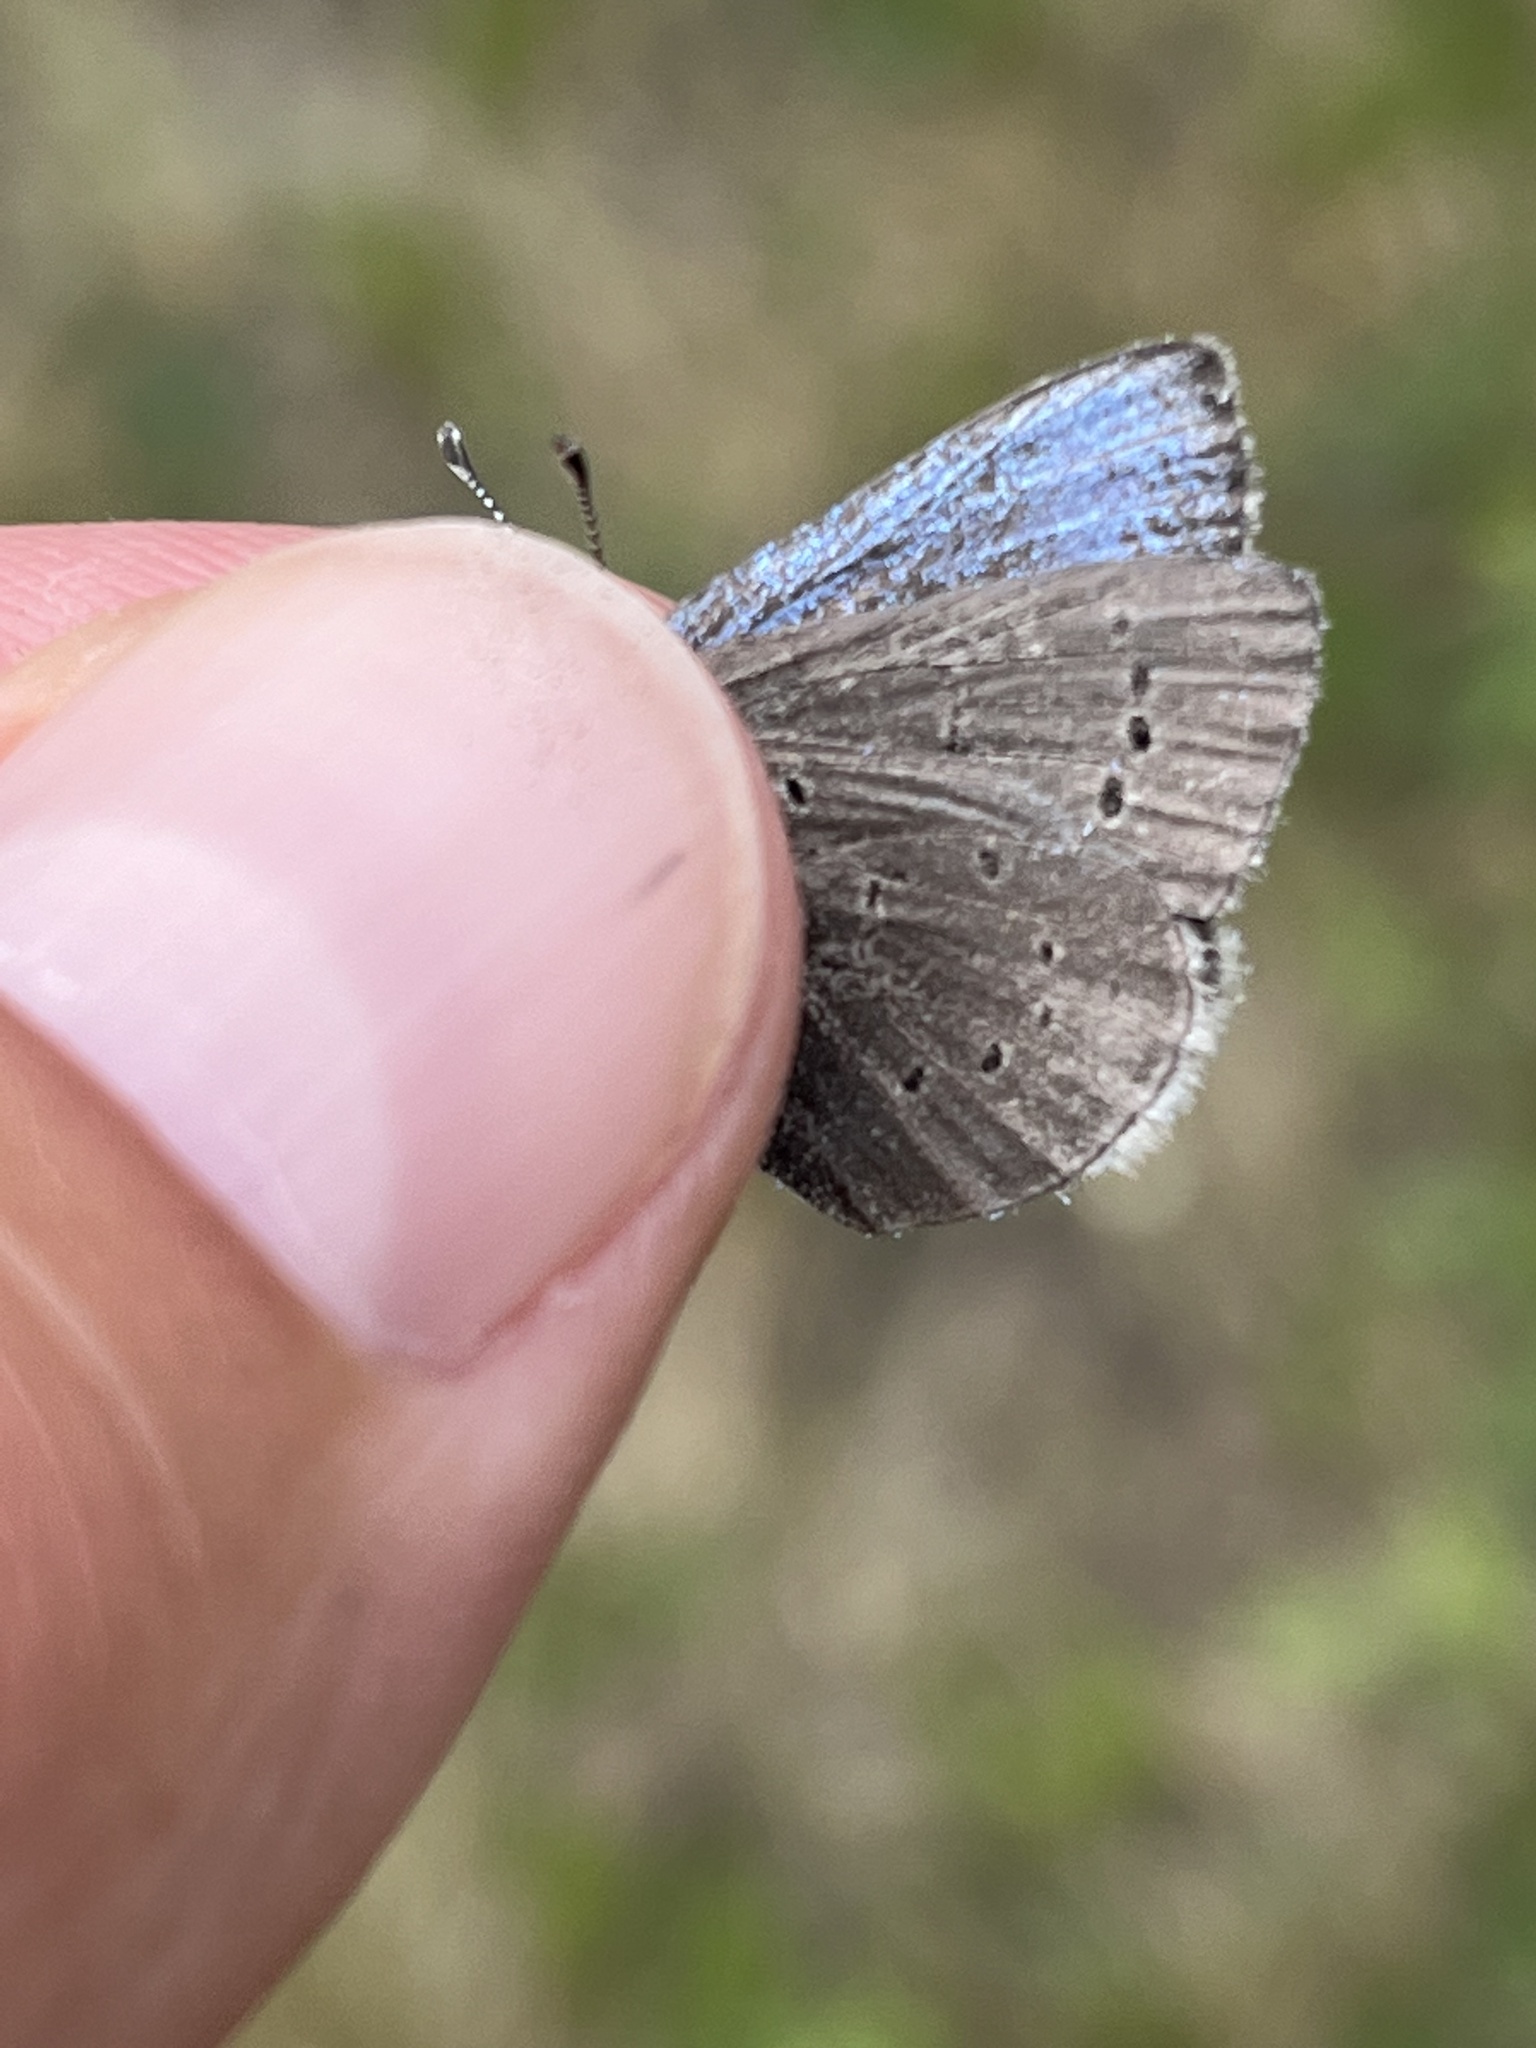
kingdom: Animalia
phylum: Arthropoda
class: Insecta
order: Lepidoptera
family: Lycaenidae
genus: Glaucopsyche
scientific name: Glaucopsyche lygdamus
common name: Silvery blue
